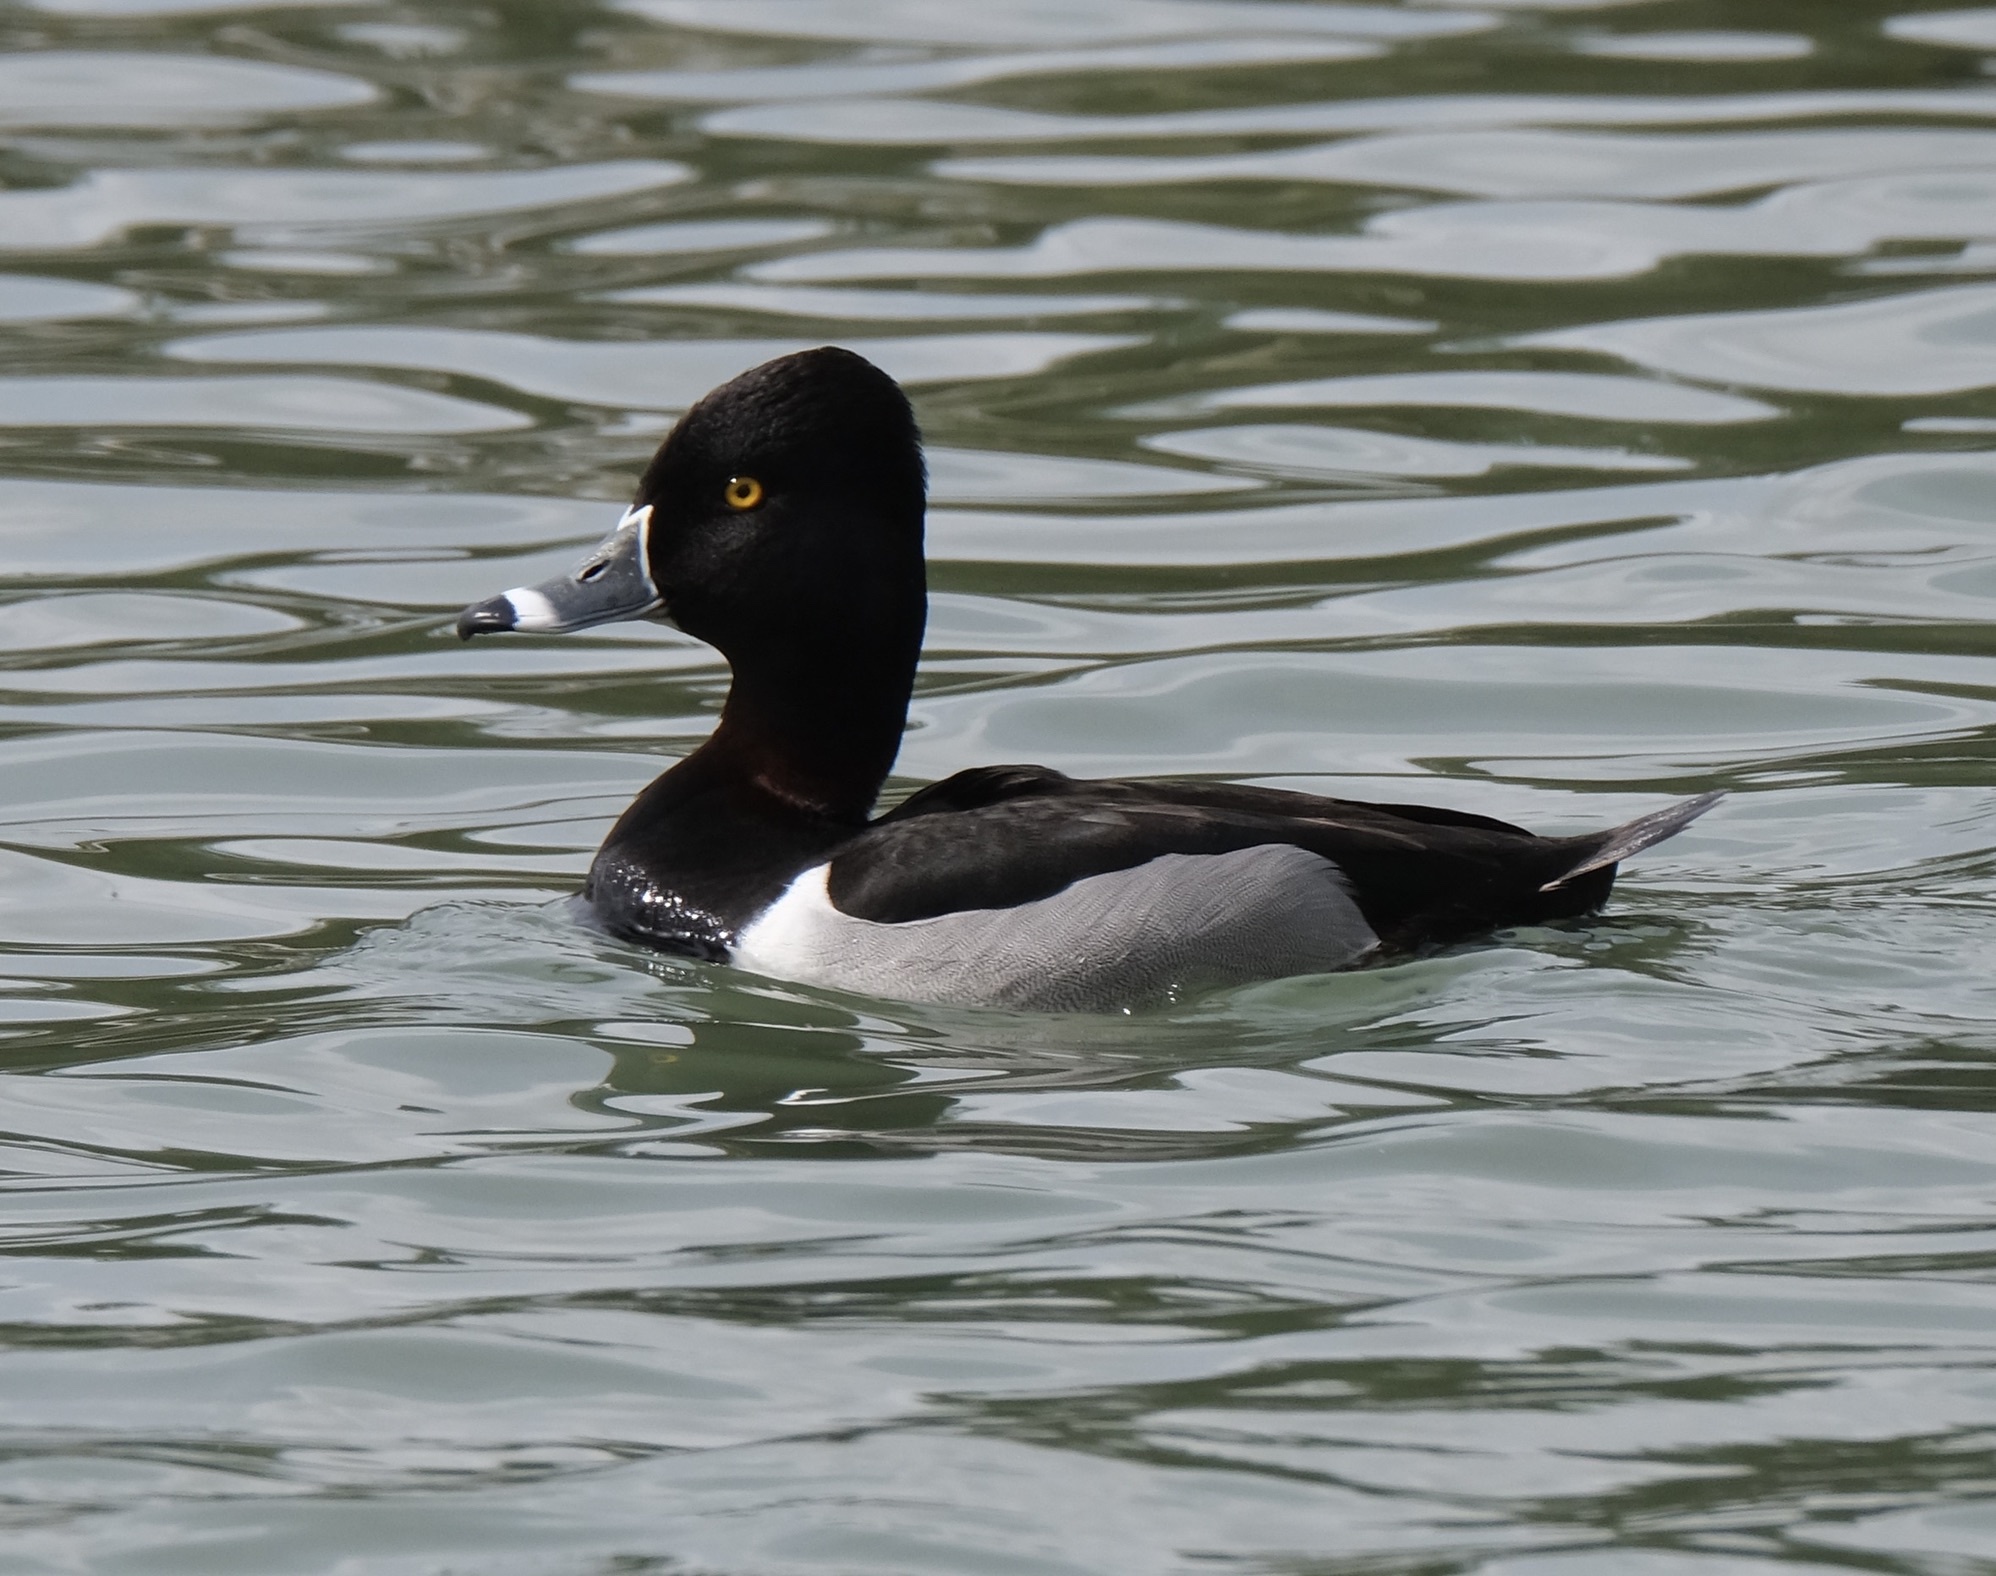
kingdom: Animalia
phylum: Chordata
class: Aves
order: Anseriformes
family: Anatidae
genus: Aythya
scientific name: Aythya collaris
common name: Ring-necked duck
